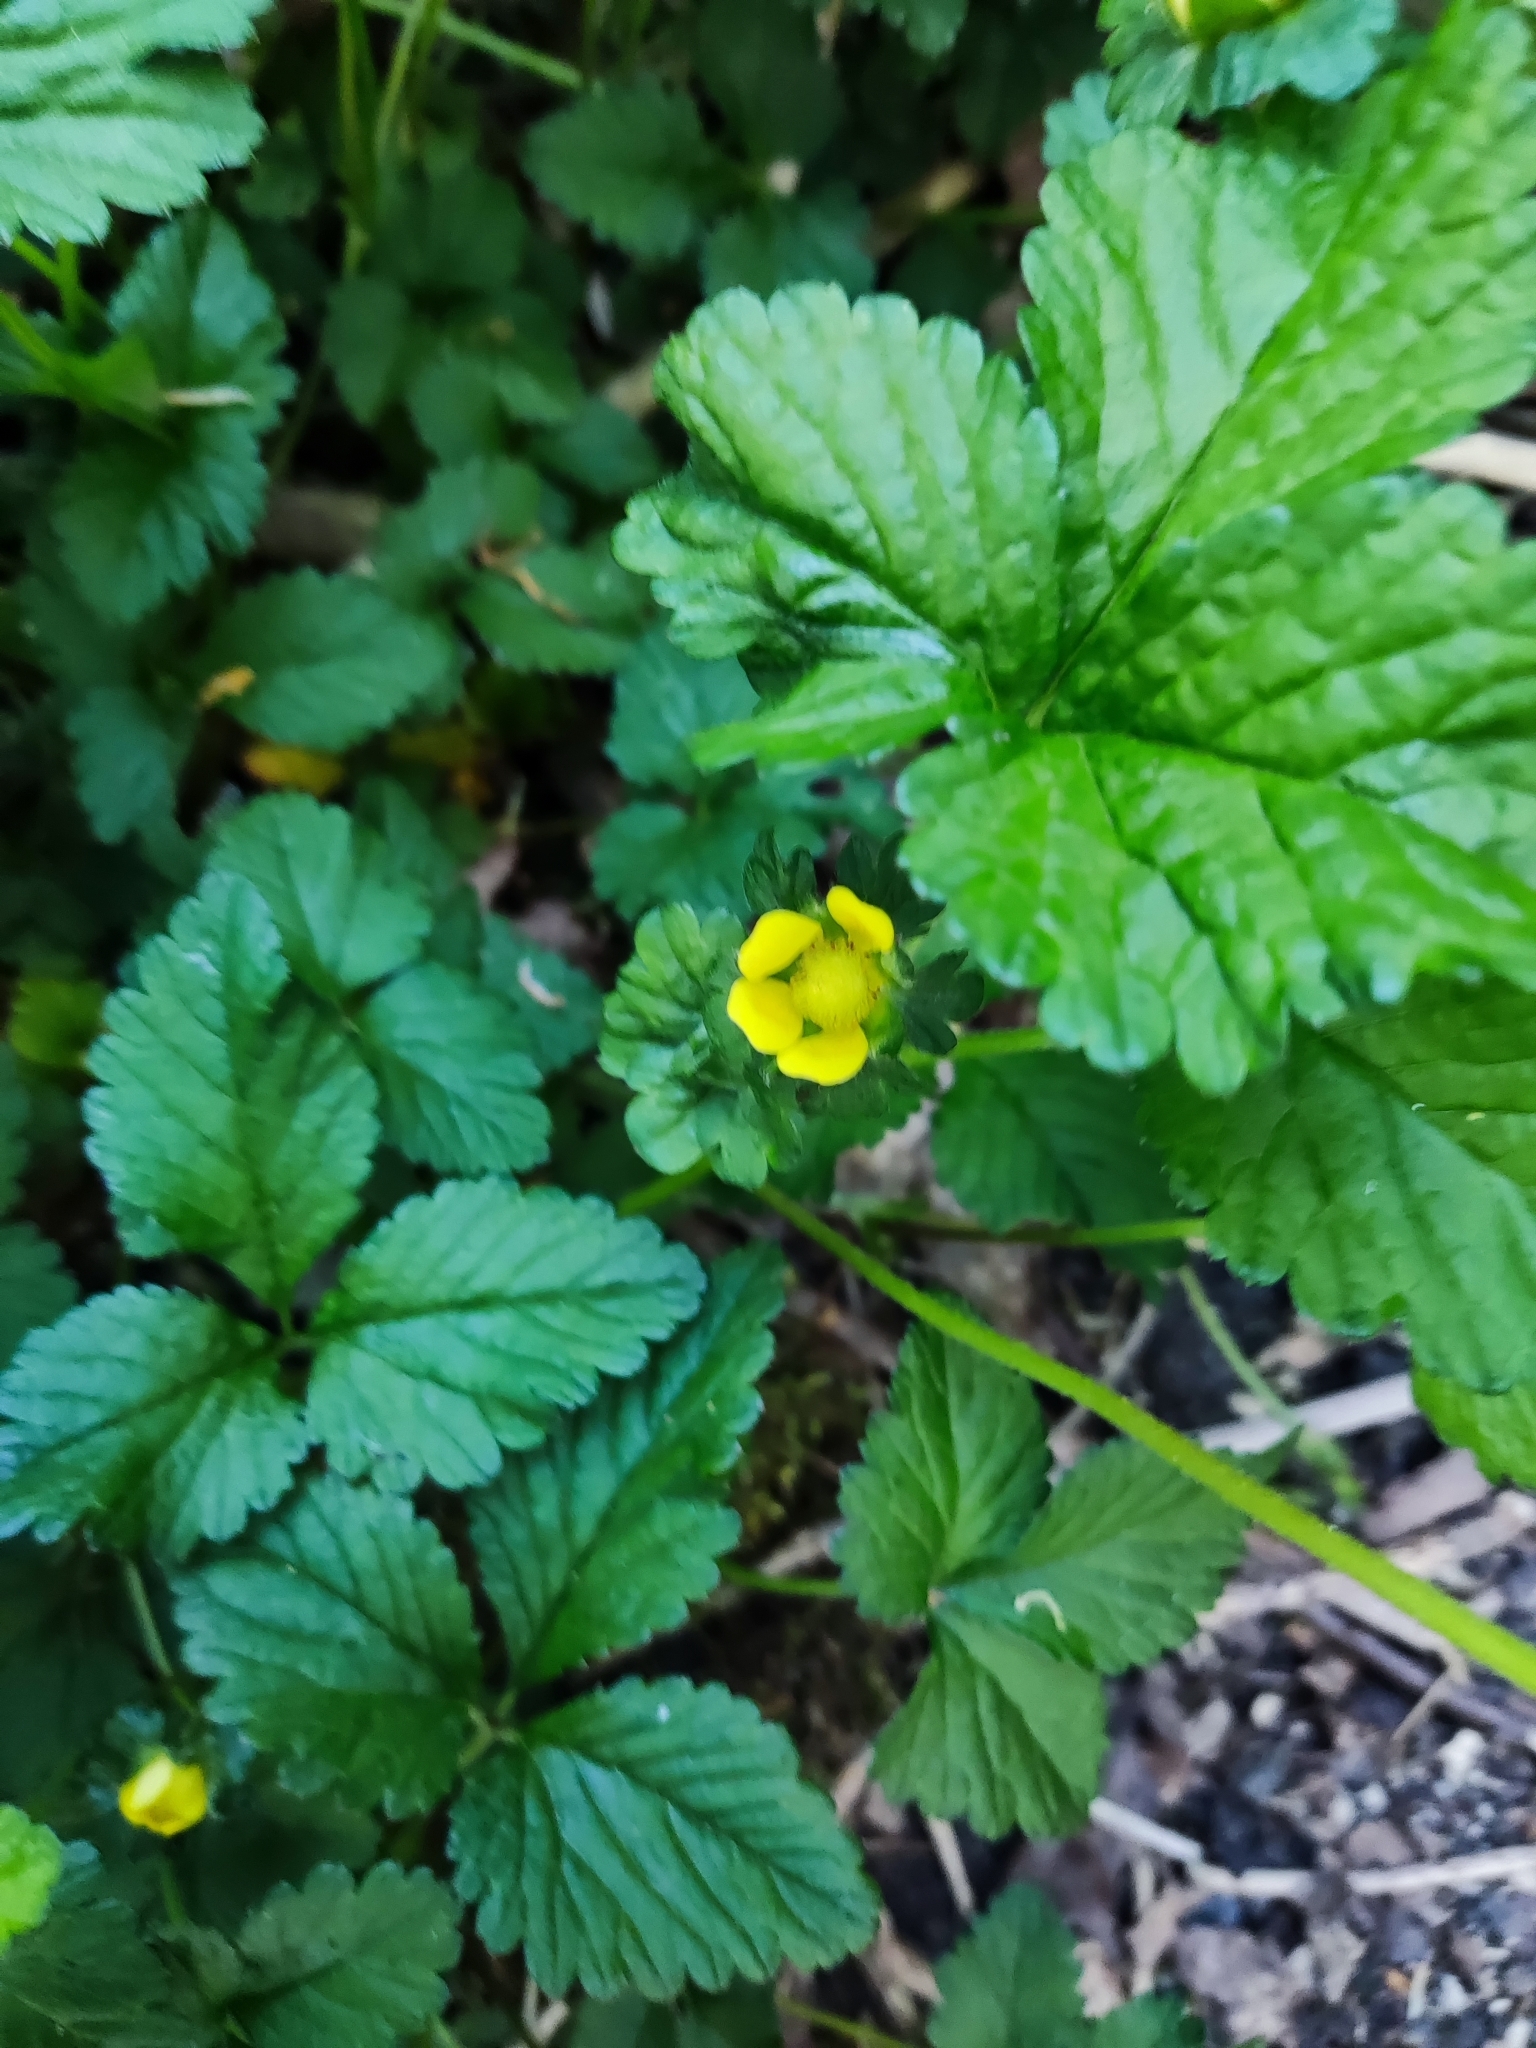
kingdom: Plantae
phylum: Tracheophyta
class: Magnoliopsida
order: Rosales
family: Rosaceae
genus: Potentilla
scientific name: Potentilla indica
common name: Yellow-flowered strawberry
